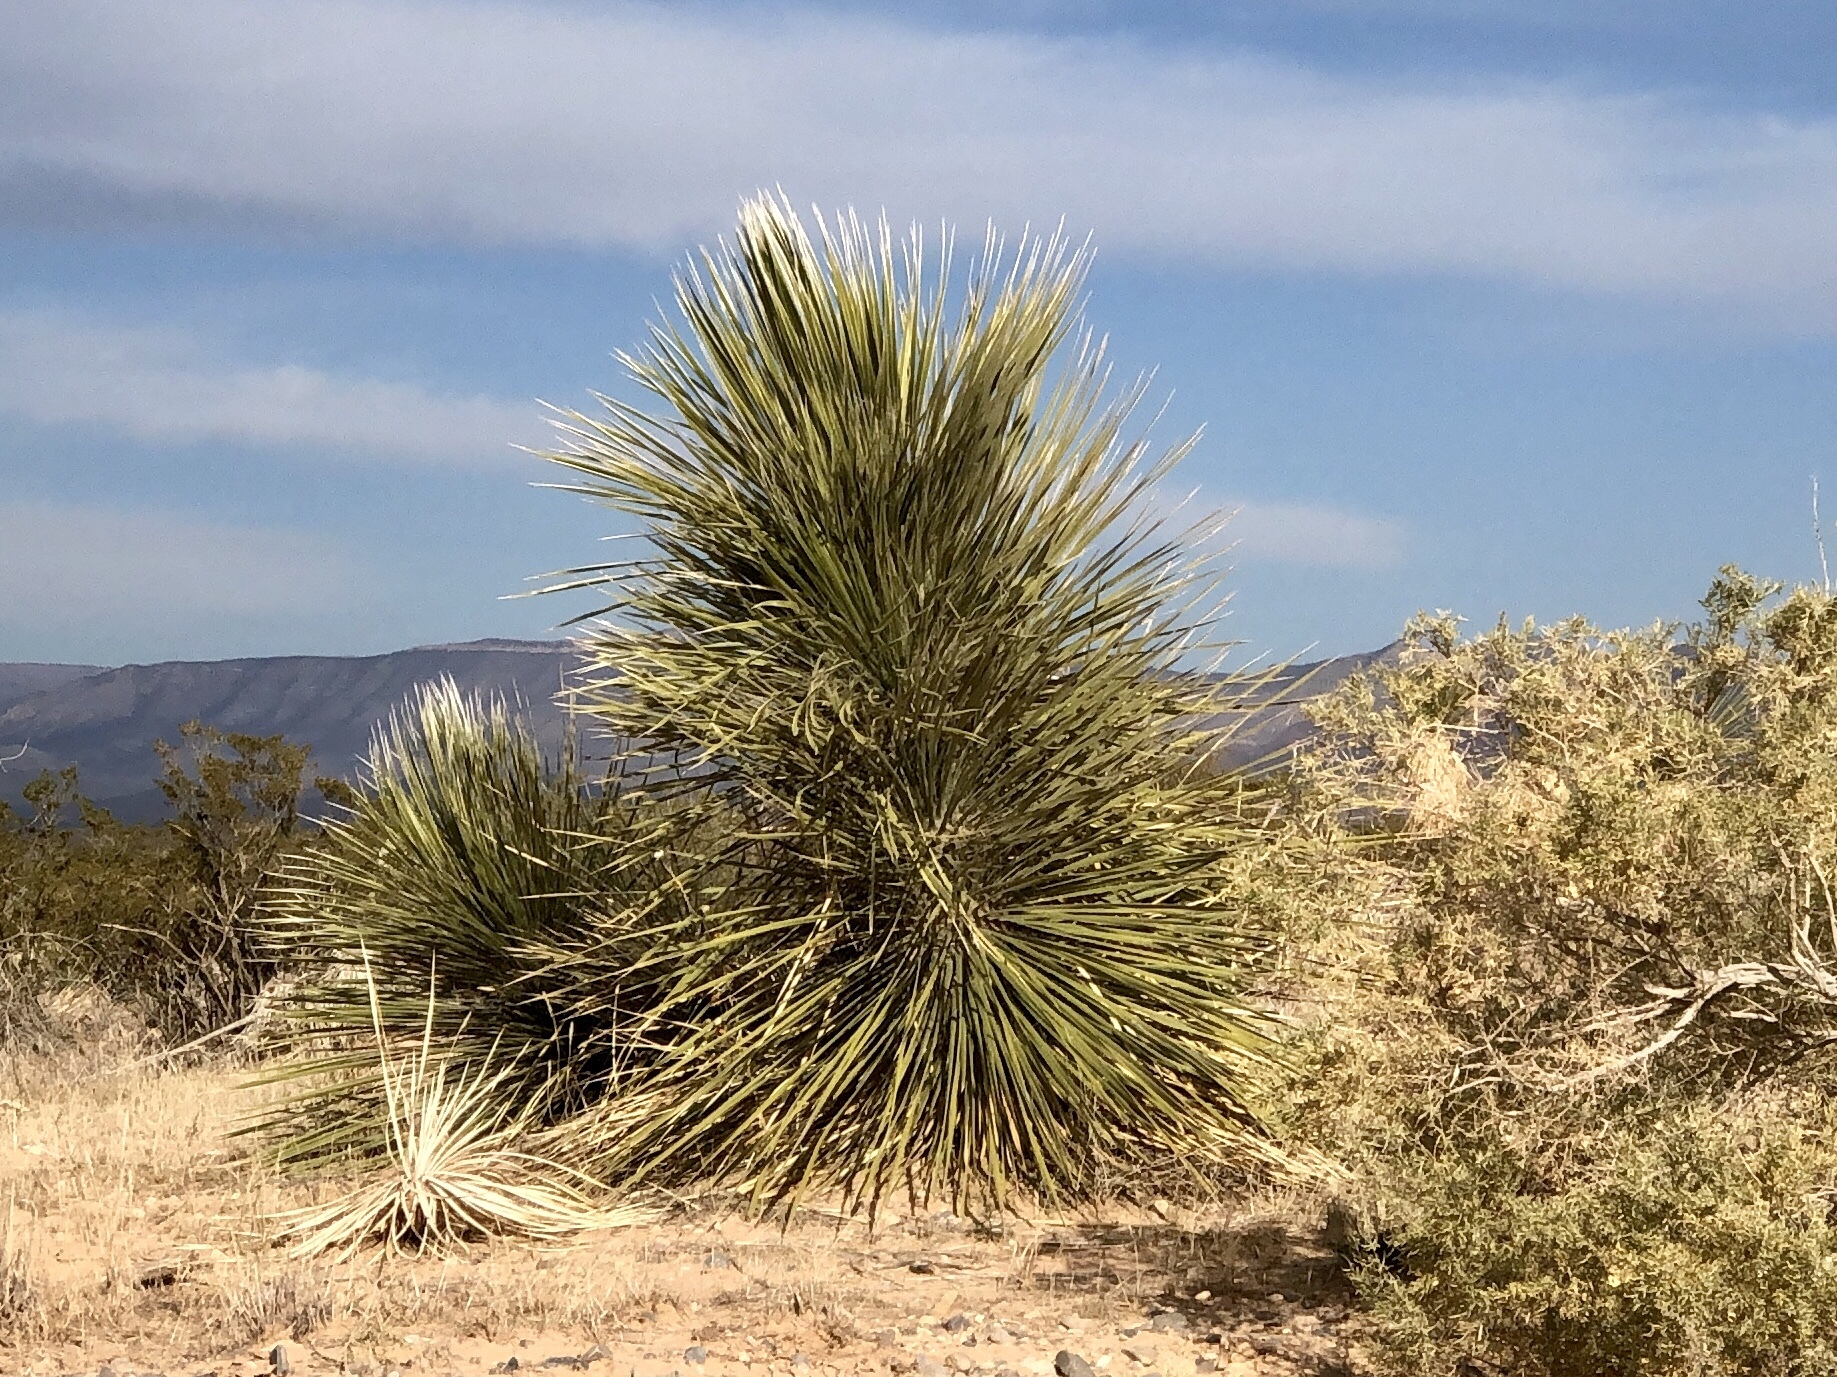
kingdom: Plantae
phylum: Tracheophyta
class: Liliopsida
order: Asparagales
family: Asparagaceae
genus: Yucca
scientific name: Yucca elata
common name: Palmella
